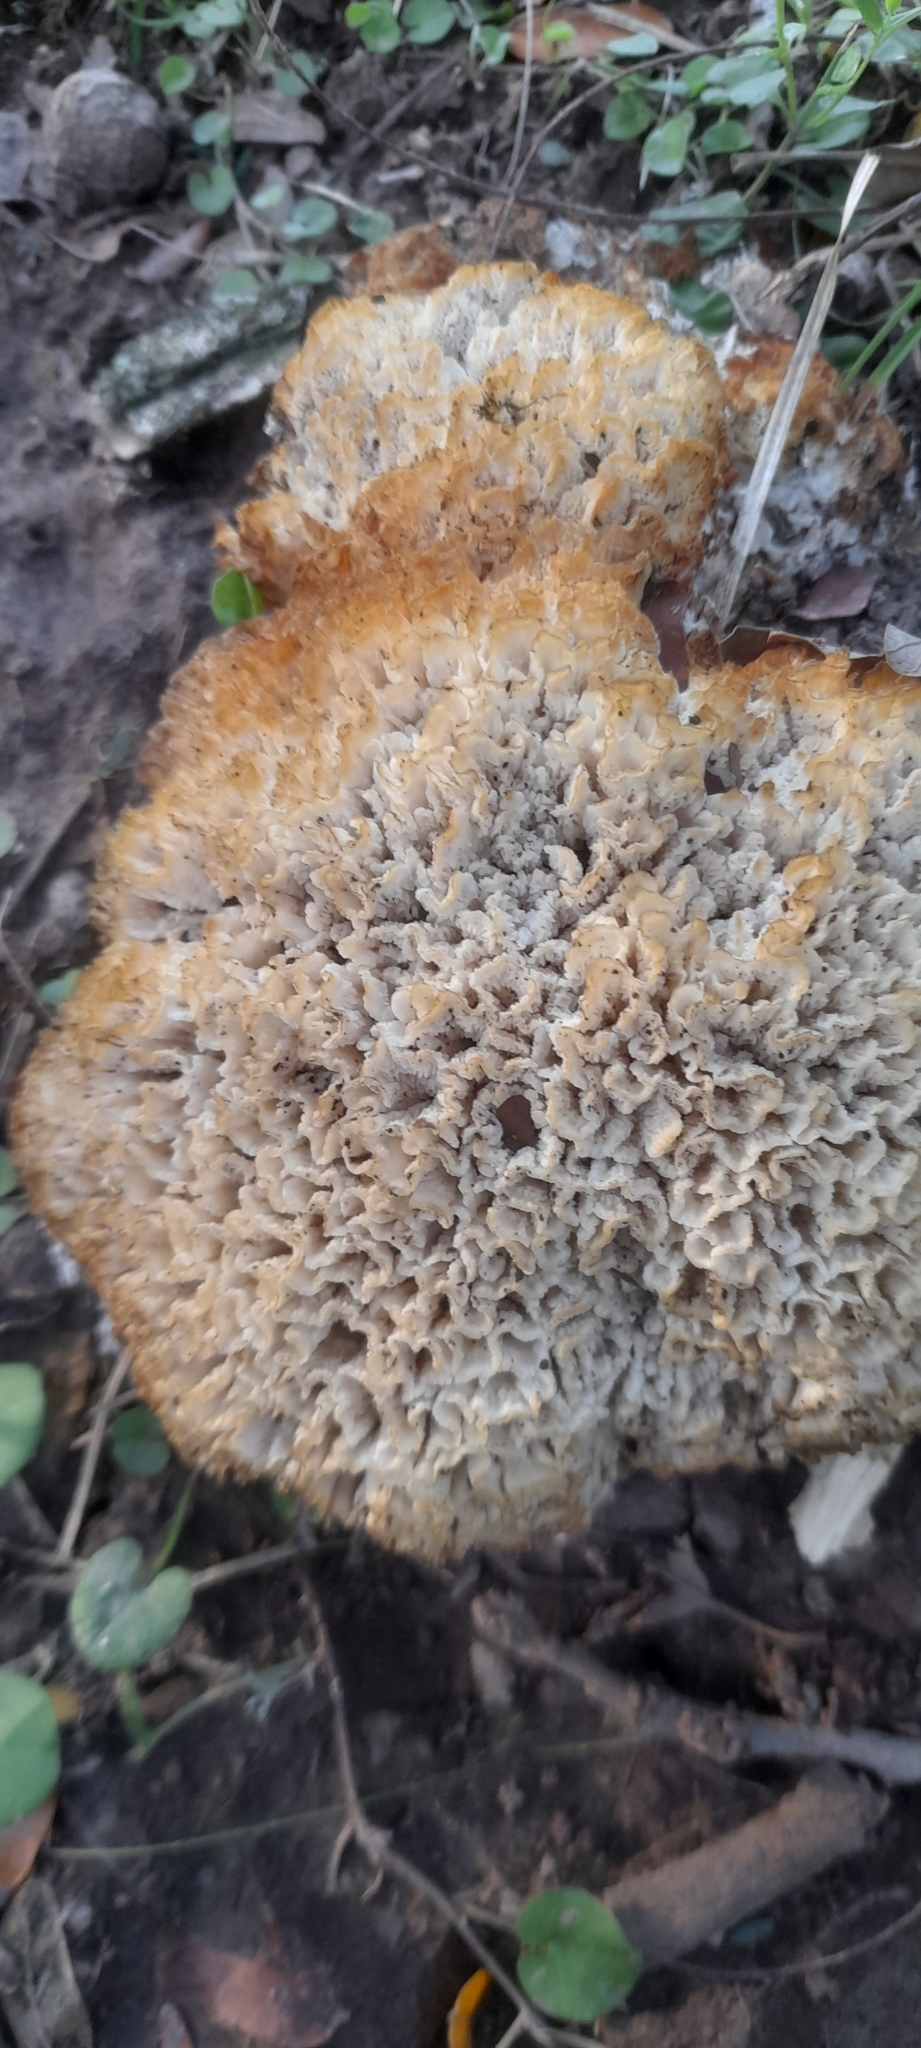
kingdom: Fungi
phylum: Basidiomycota
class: Agaricomycetes
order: Polyporales
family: Irpicaceae
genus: Irpex
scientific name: Irpex rosettiformis
